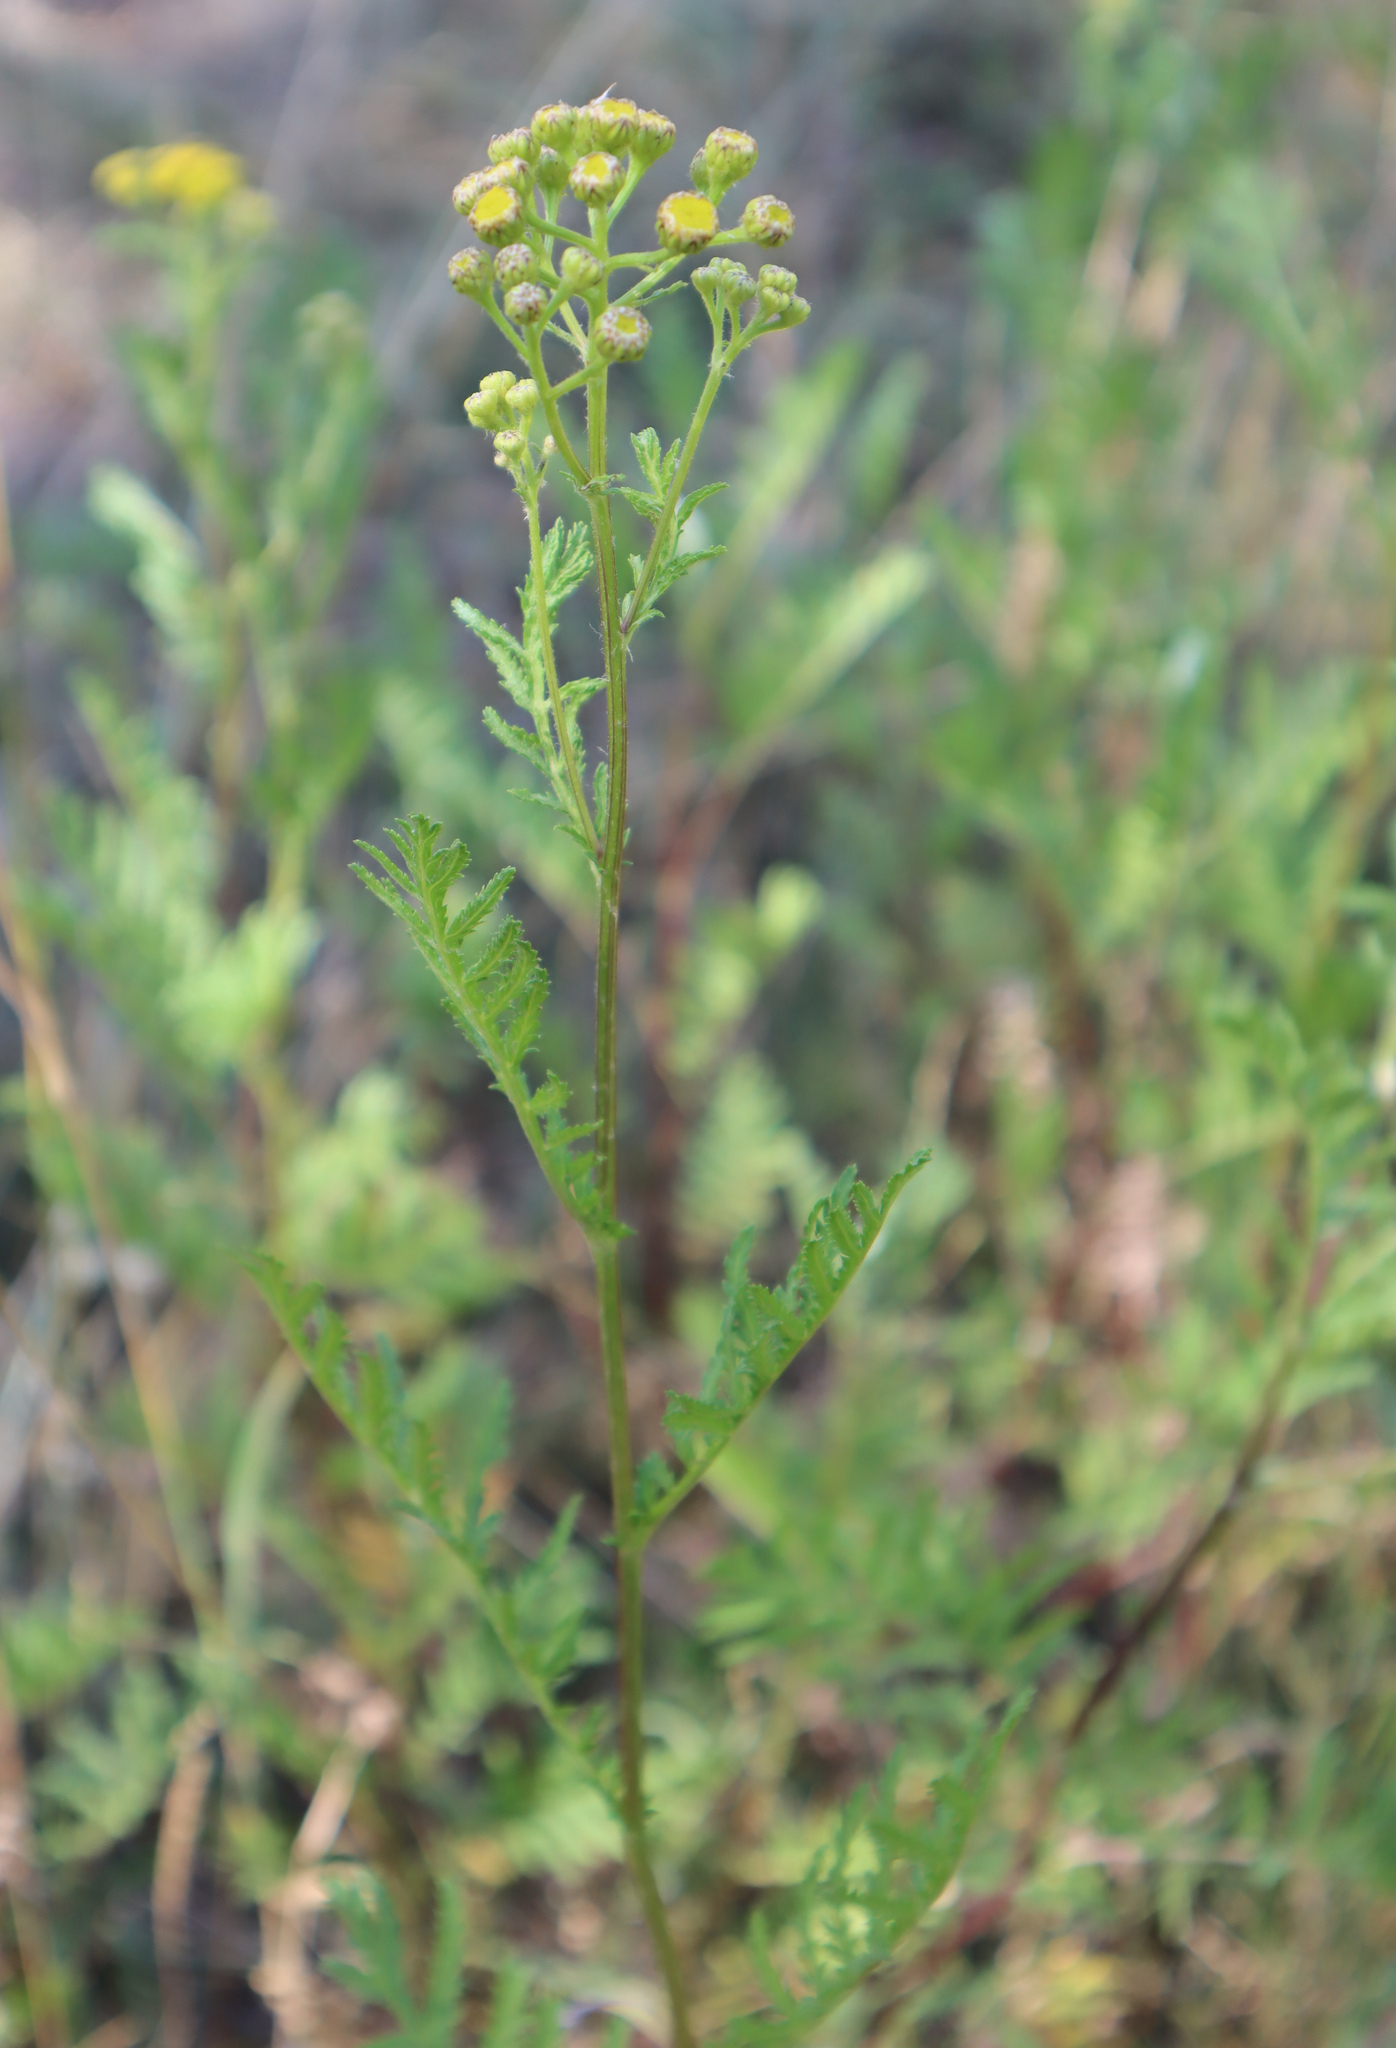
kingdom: Plantae
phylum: Tracheophyta
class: Magnoliopsida
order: Asterales
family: Asteraceae
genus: Tanacetum
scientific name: Tanacetum vulgare
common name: Common tansy
